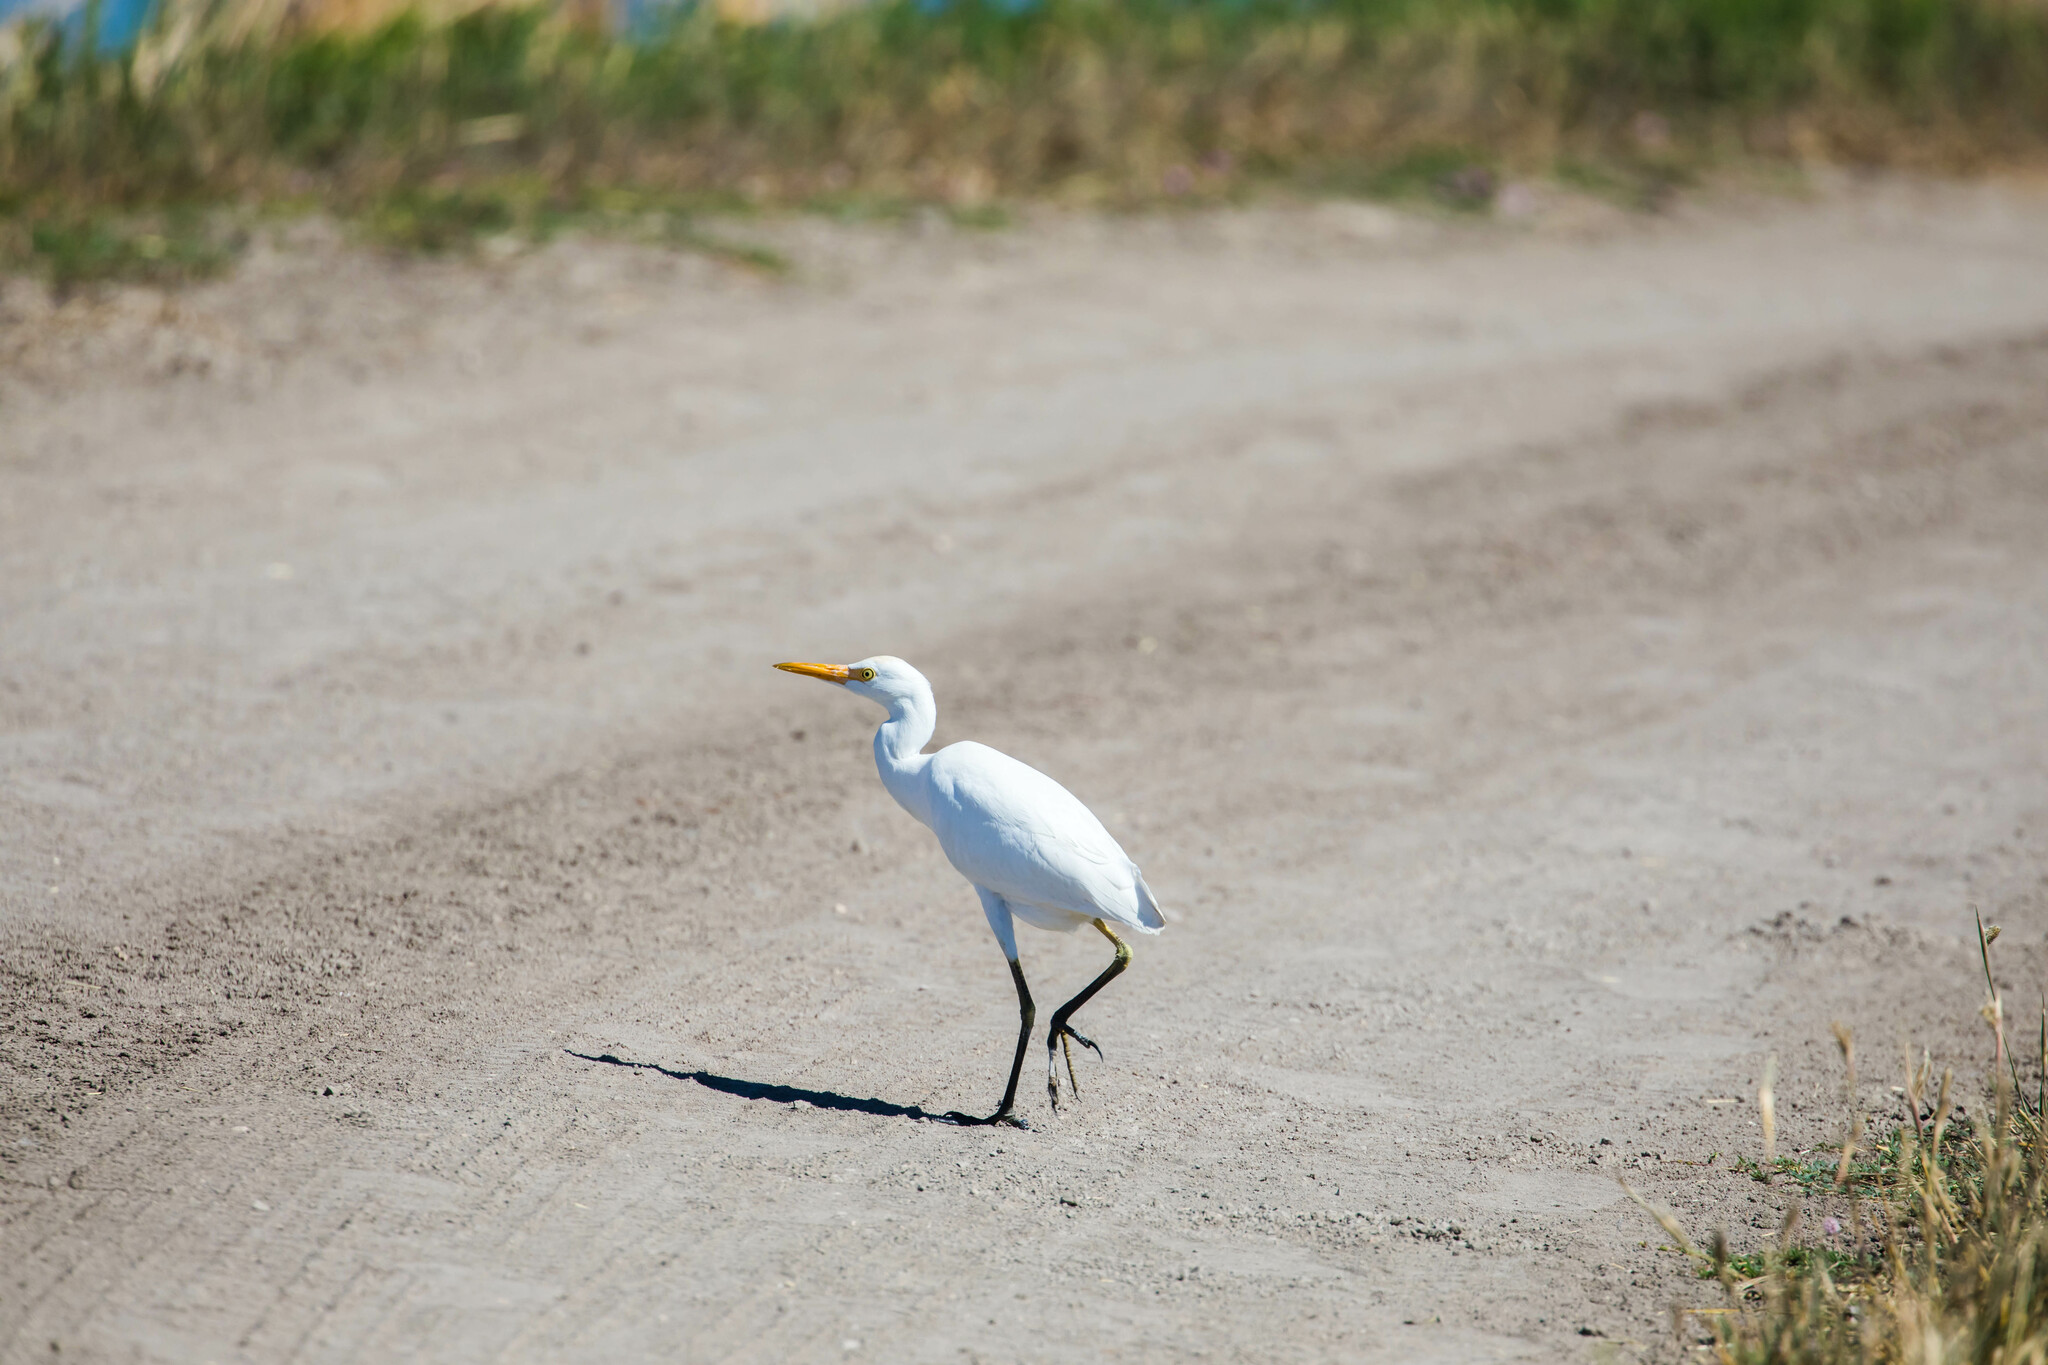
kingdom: Animalia
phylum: Chordata
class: Aves
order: Pelecaniformes
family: Ardeidae
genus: Bubulcus
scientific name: Bubulcus ibis
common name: Cattle egret
